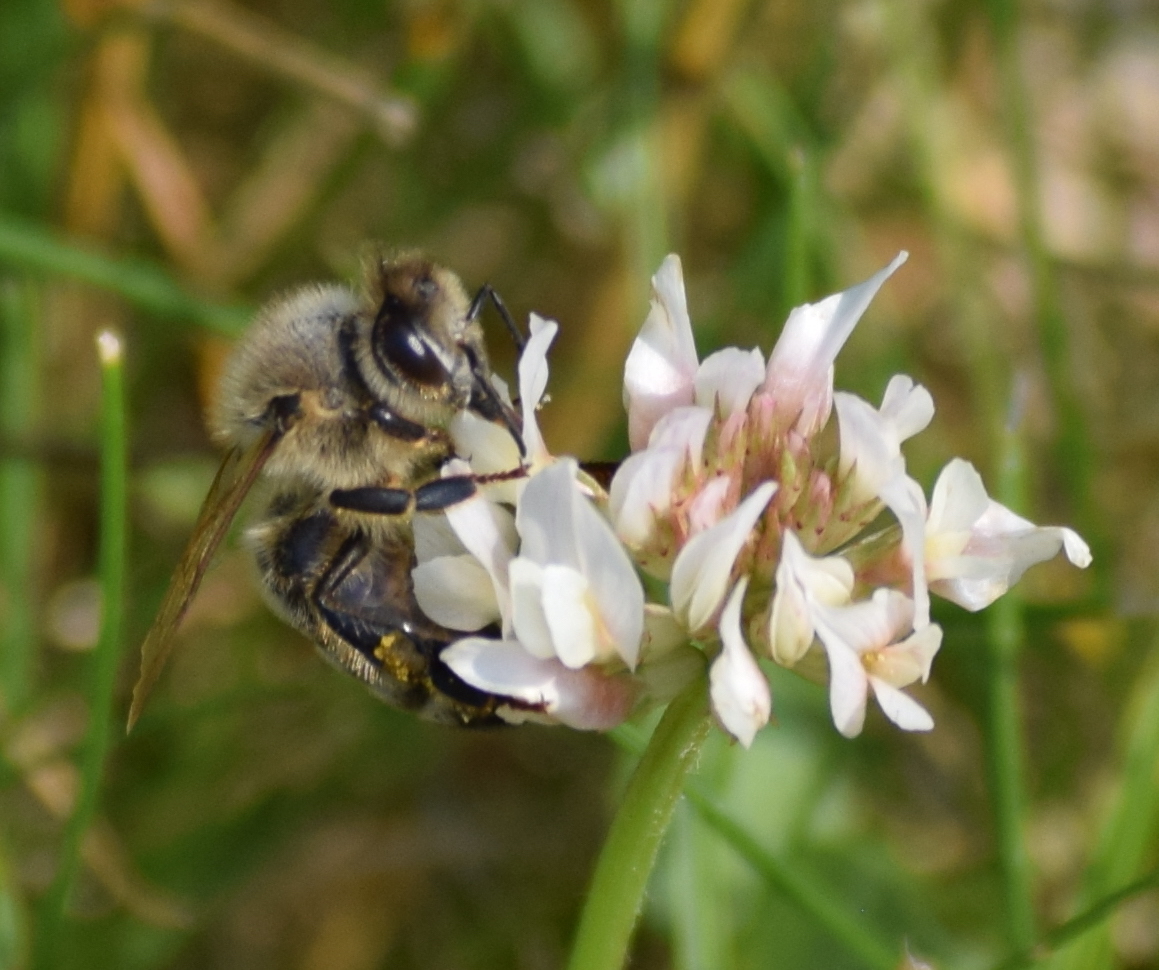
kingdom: Animalia
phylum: Arthropoda
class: Insecta
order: Hymenoptera
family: Apidae
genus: Apis
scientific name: Apis mellifera
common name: Honey bee
